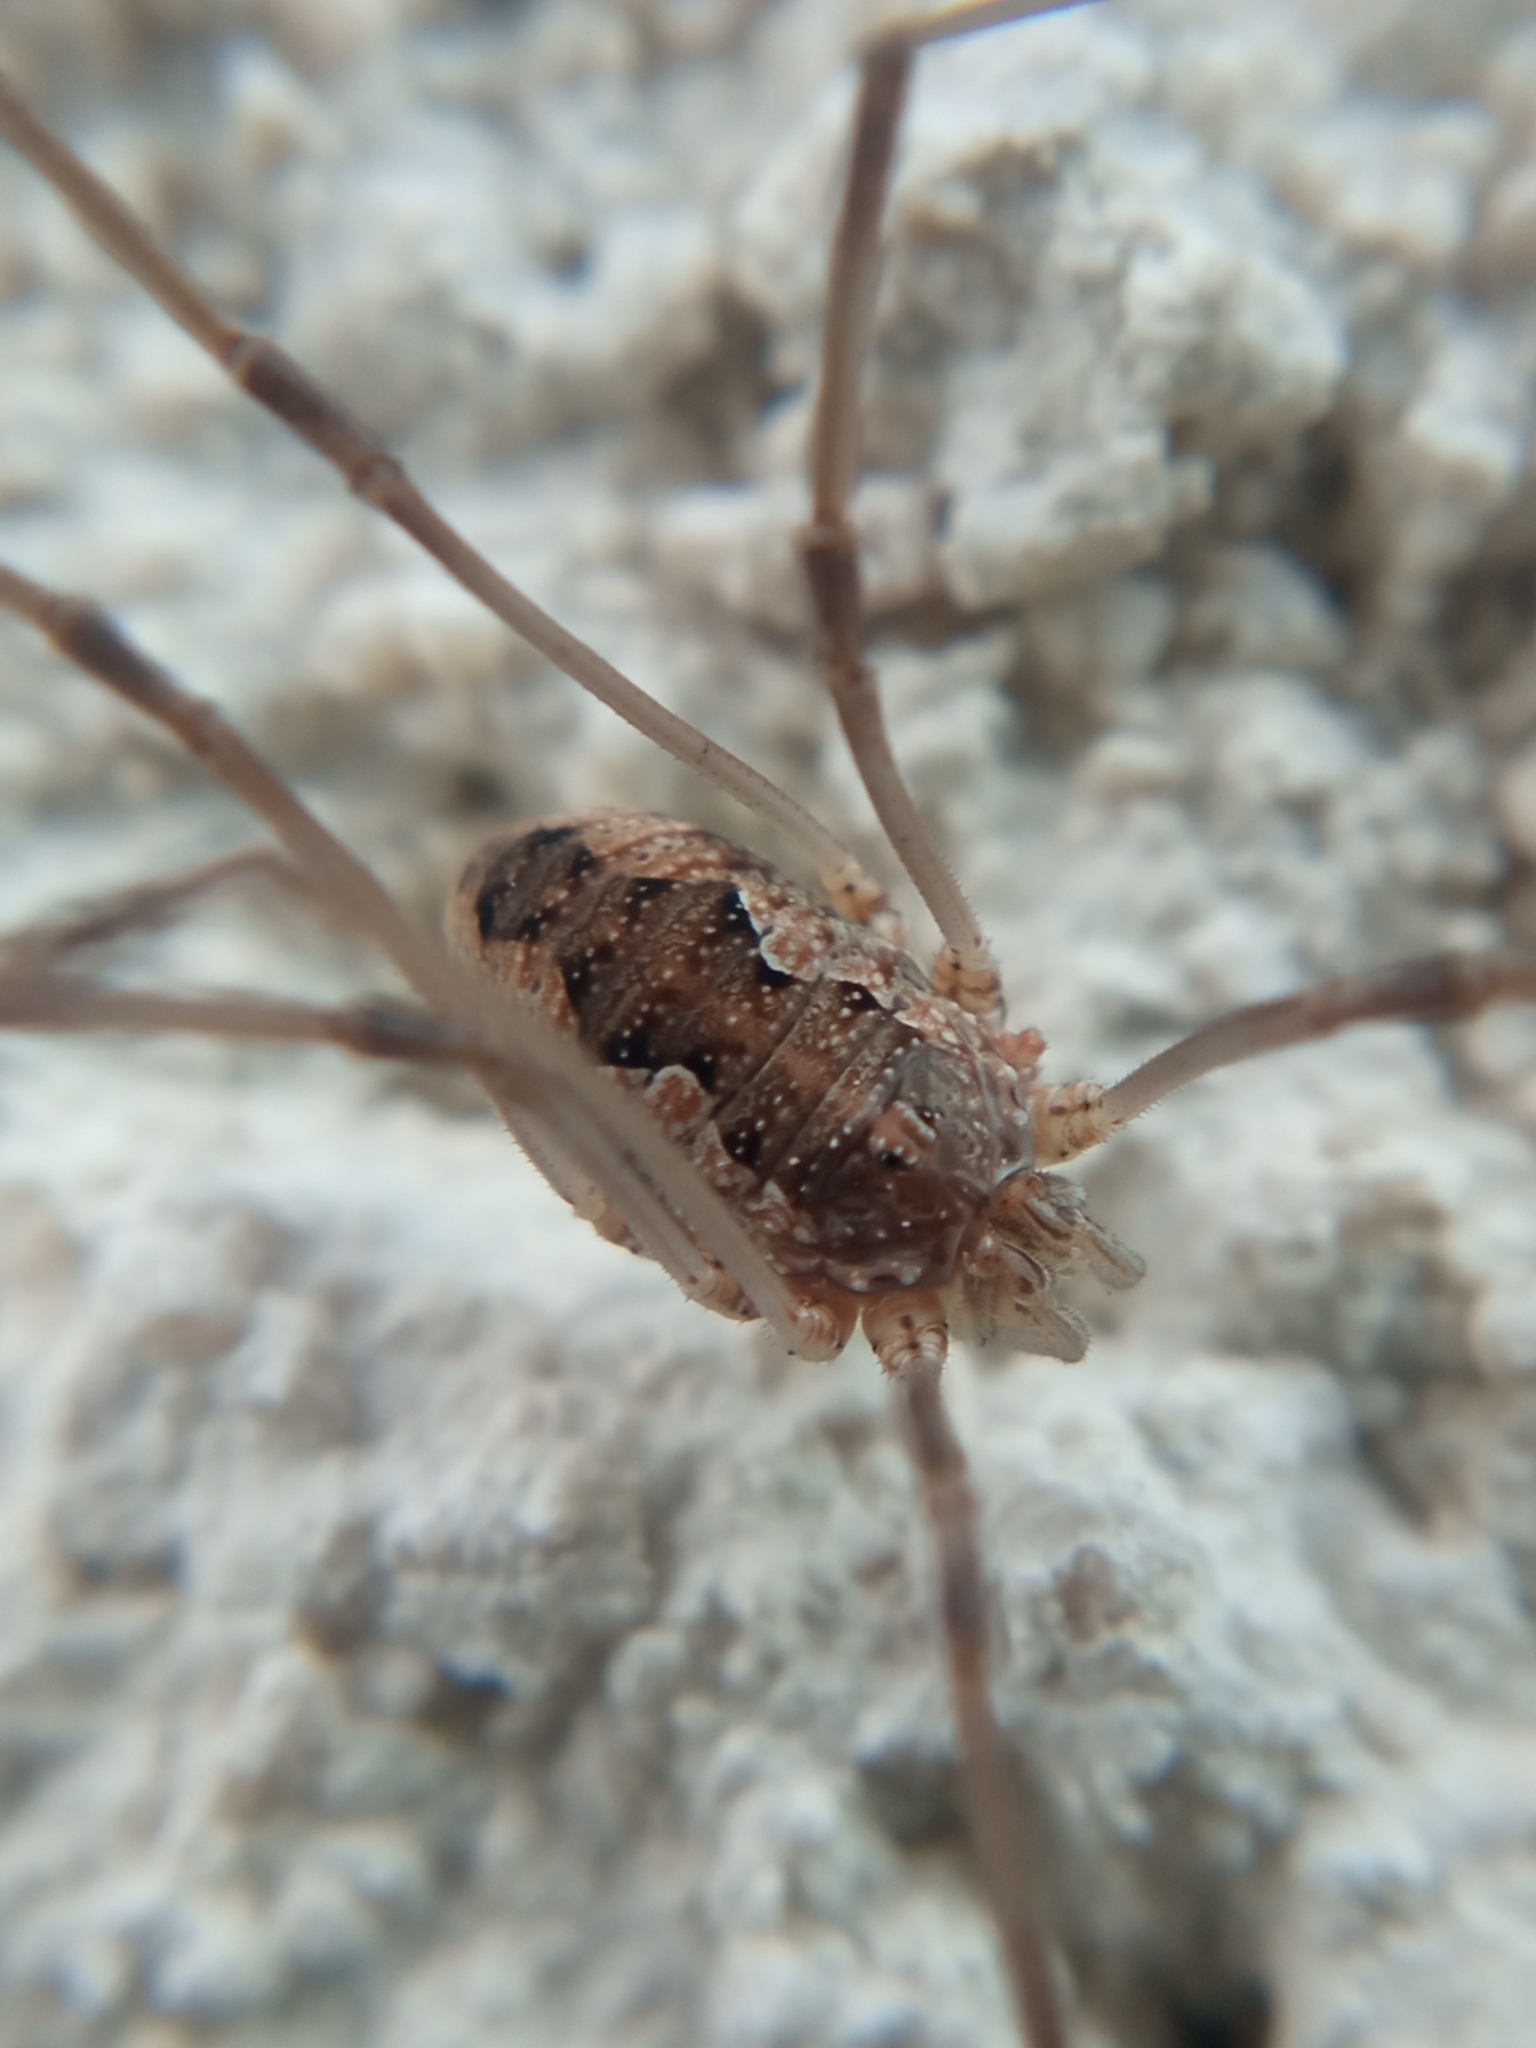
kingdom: Animalia
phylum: Arthropoda
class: Arachnida
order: Opiliones
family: Phalangiidae
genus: Phalangium
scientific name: Phalangium opilio
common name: Daddy longleg
